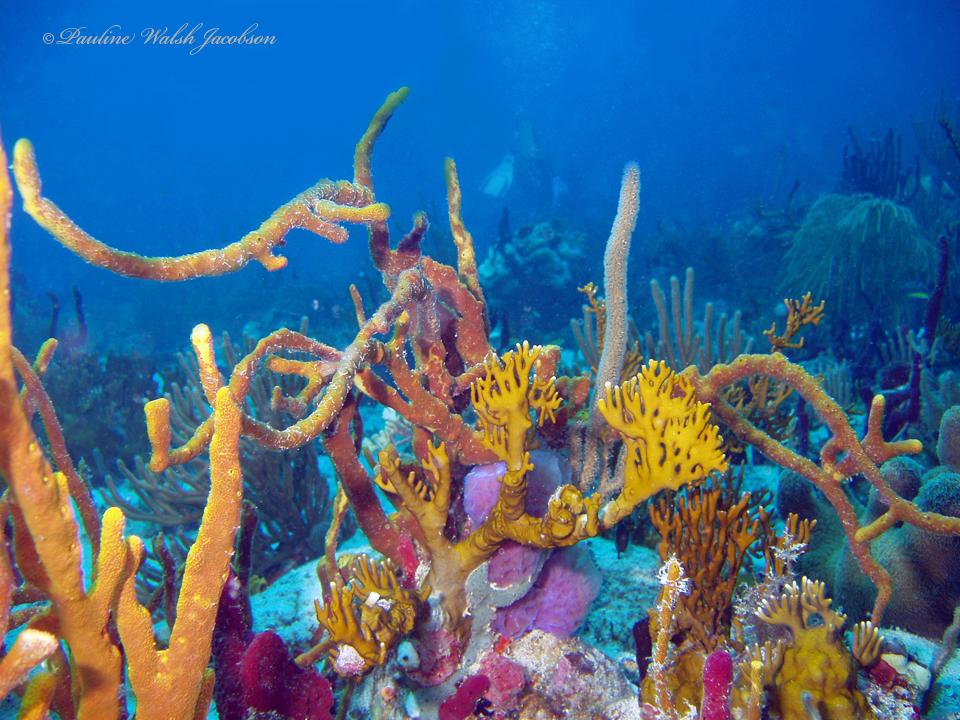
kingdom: Animalia
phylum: Cnidaria
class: Hydrozoa
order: Anthoathecata
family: Milleporidae
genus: Millepora
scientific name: Millepora alcicornis
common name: Branching fire coral
